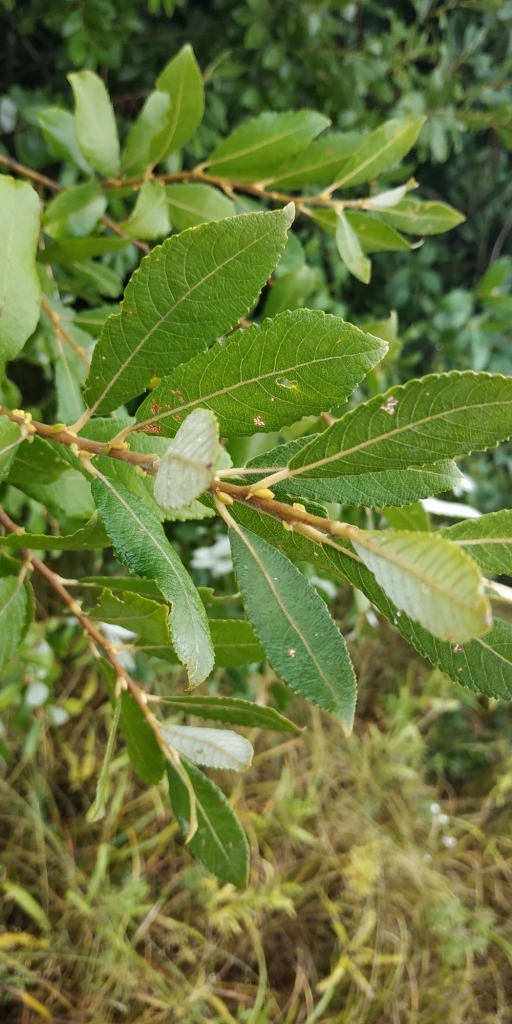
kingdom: Plantae
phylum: Tracheophyta
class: Magnoliopsida
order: Malpighiales
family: Salicaceae
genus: Salix
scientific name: Salix cinerea
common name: Common sallow
